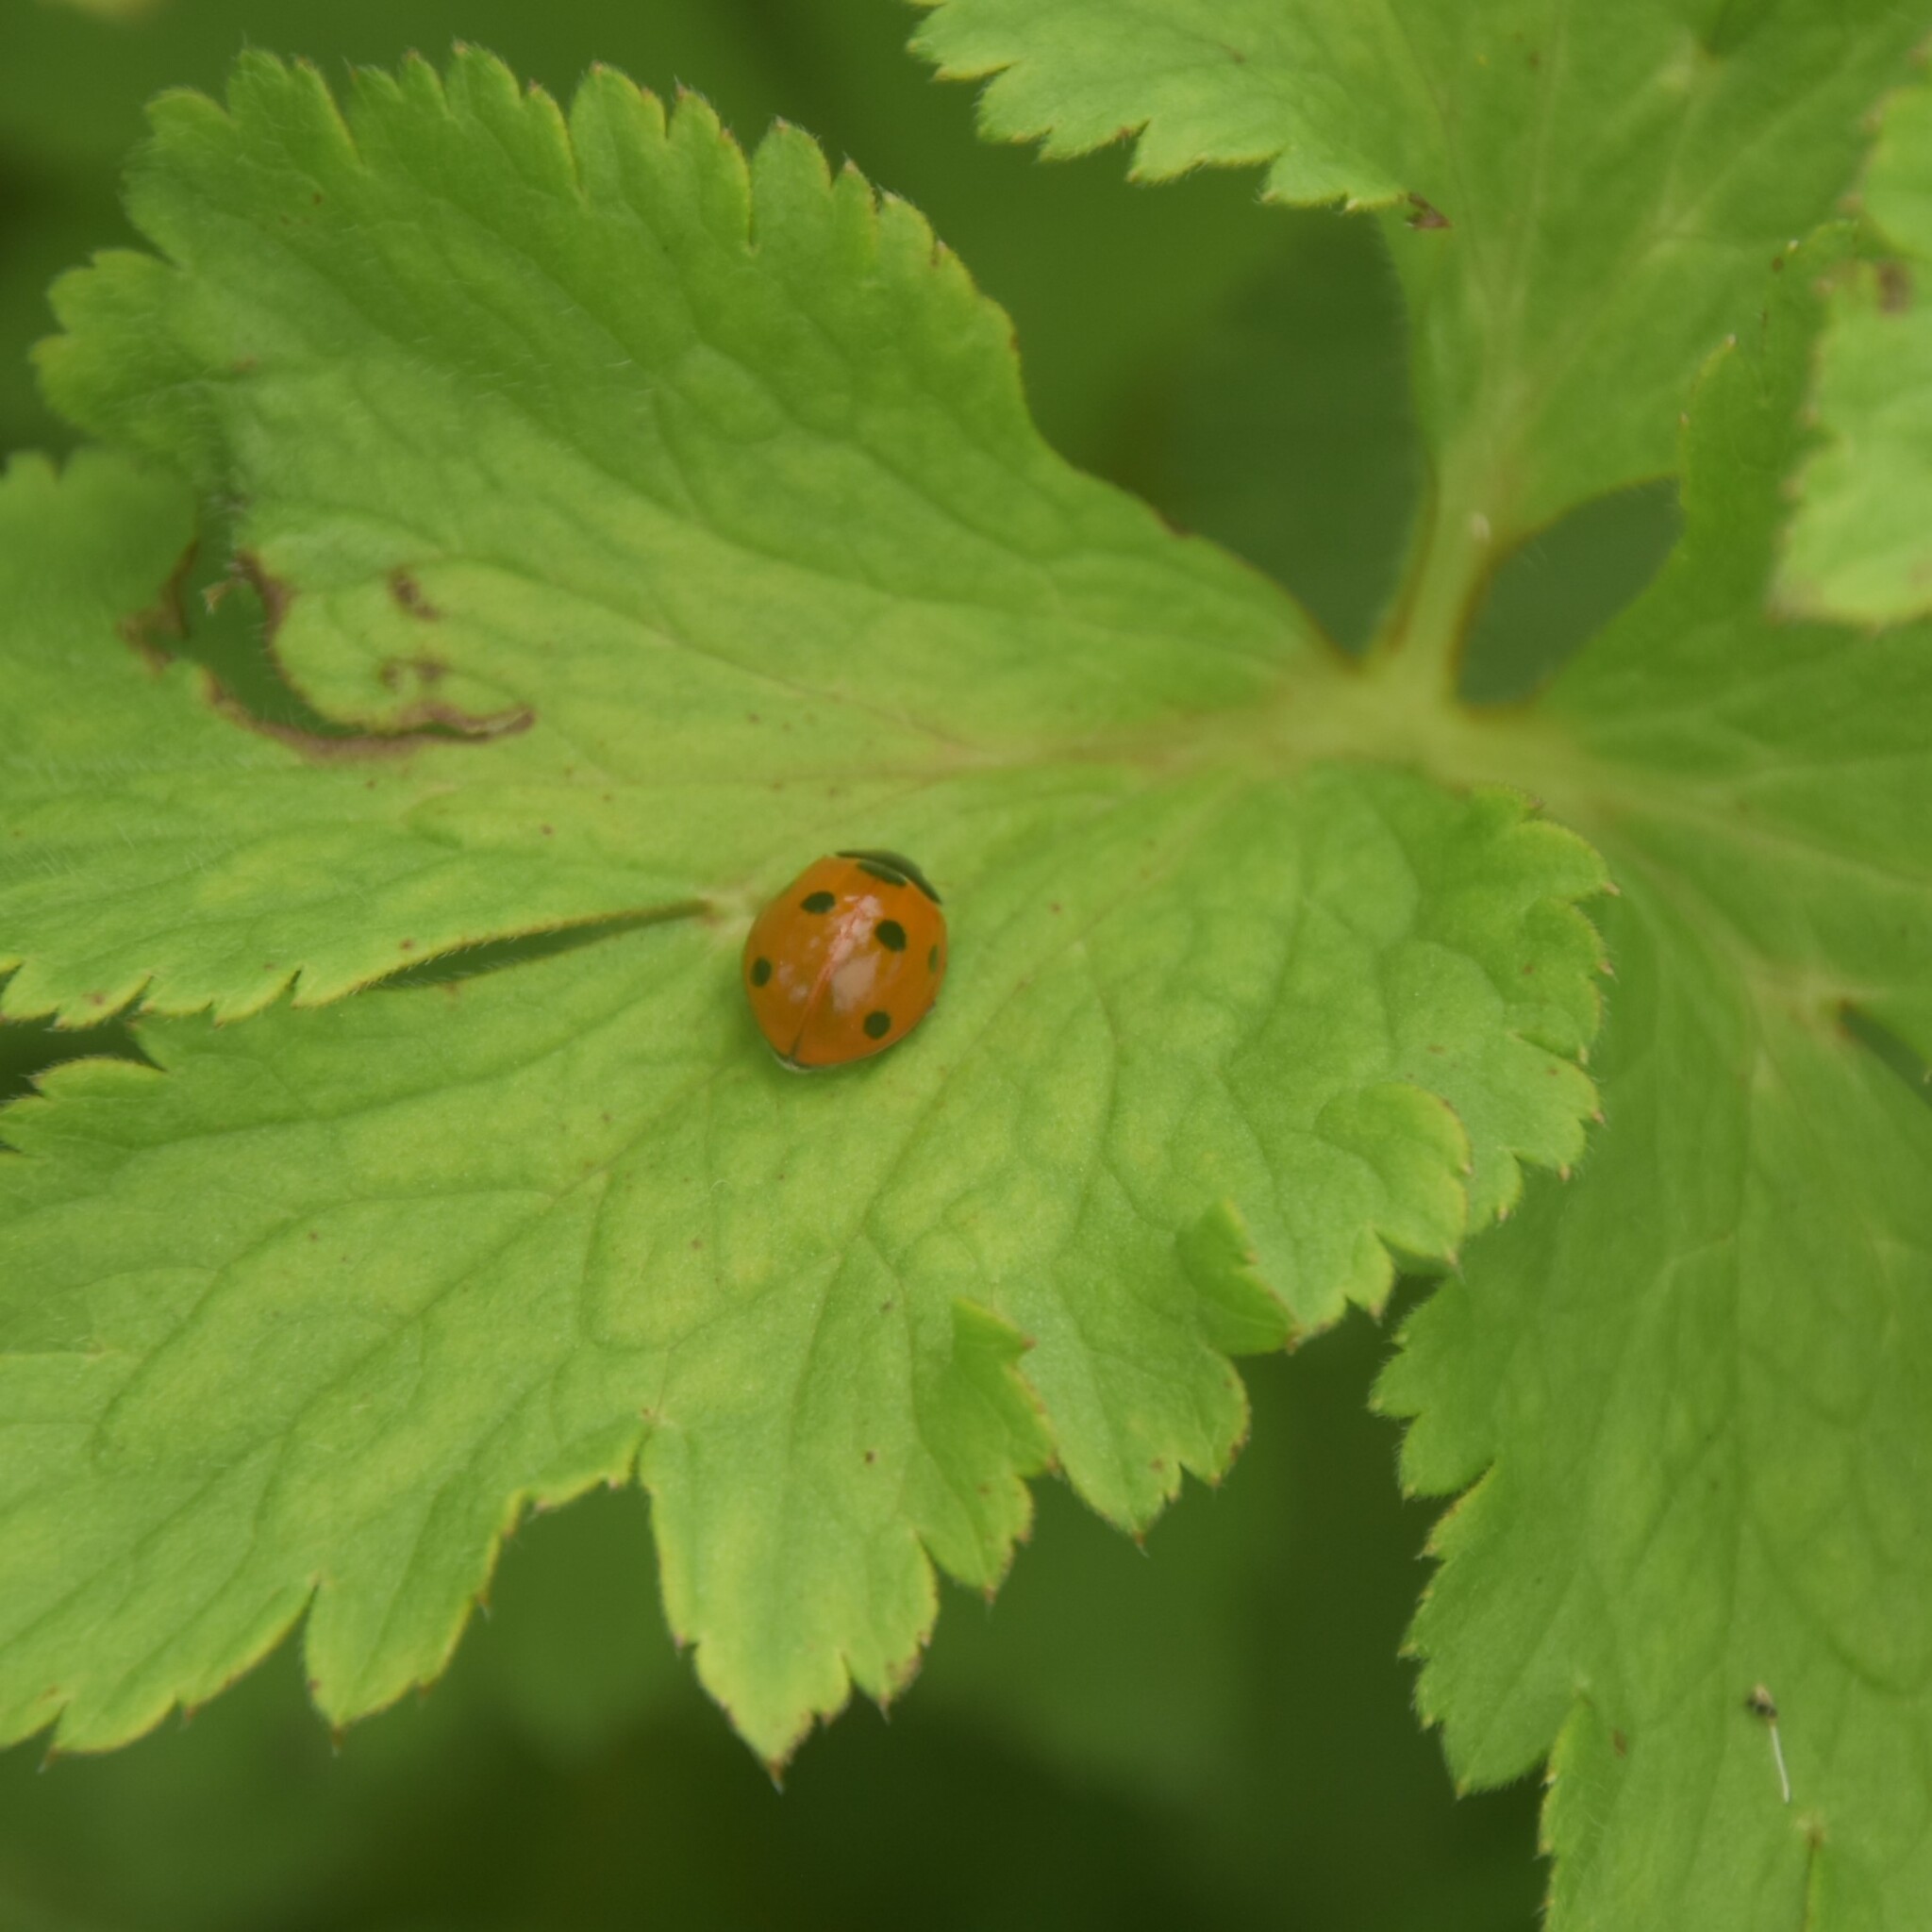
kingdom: Animalia
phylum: Arthropoda
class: Insecta
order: Coleoptera
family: Coccinellidae
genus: Coccinella
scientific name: Coccinella septempunctata
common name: Sevenspotted lady beetle
